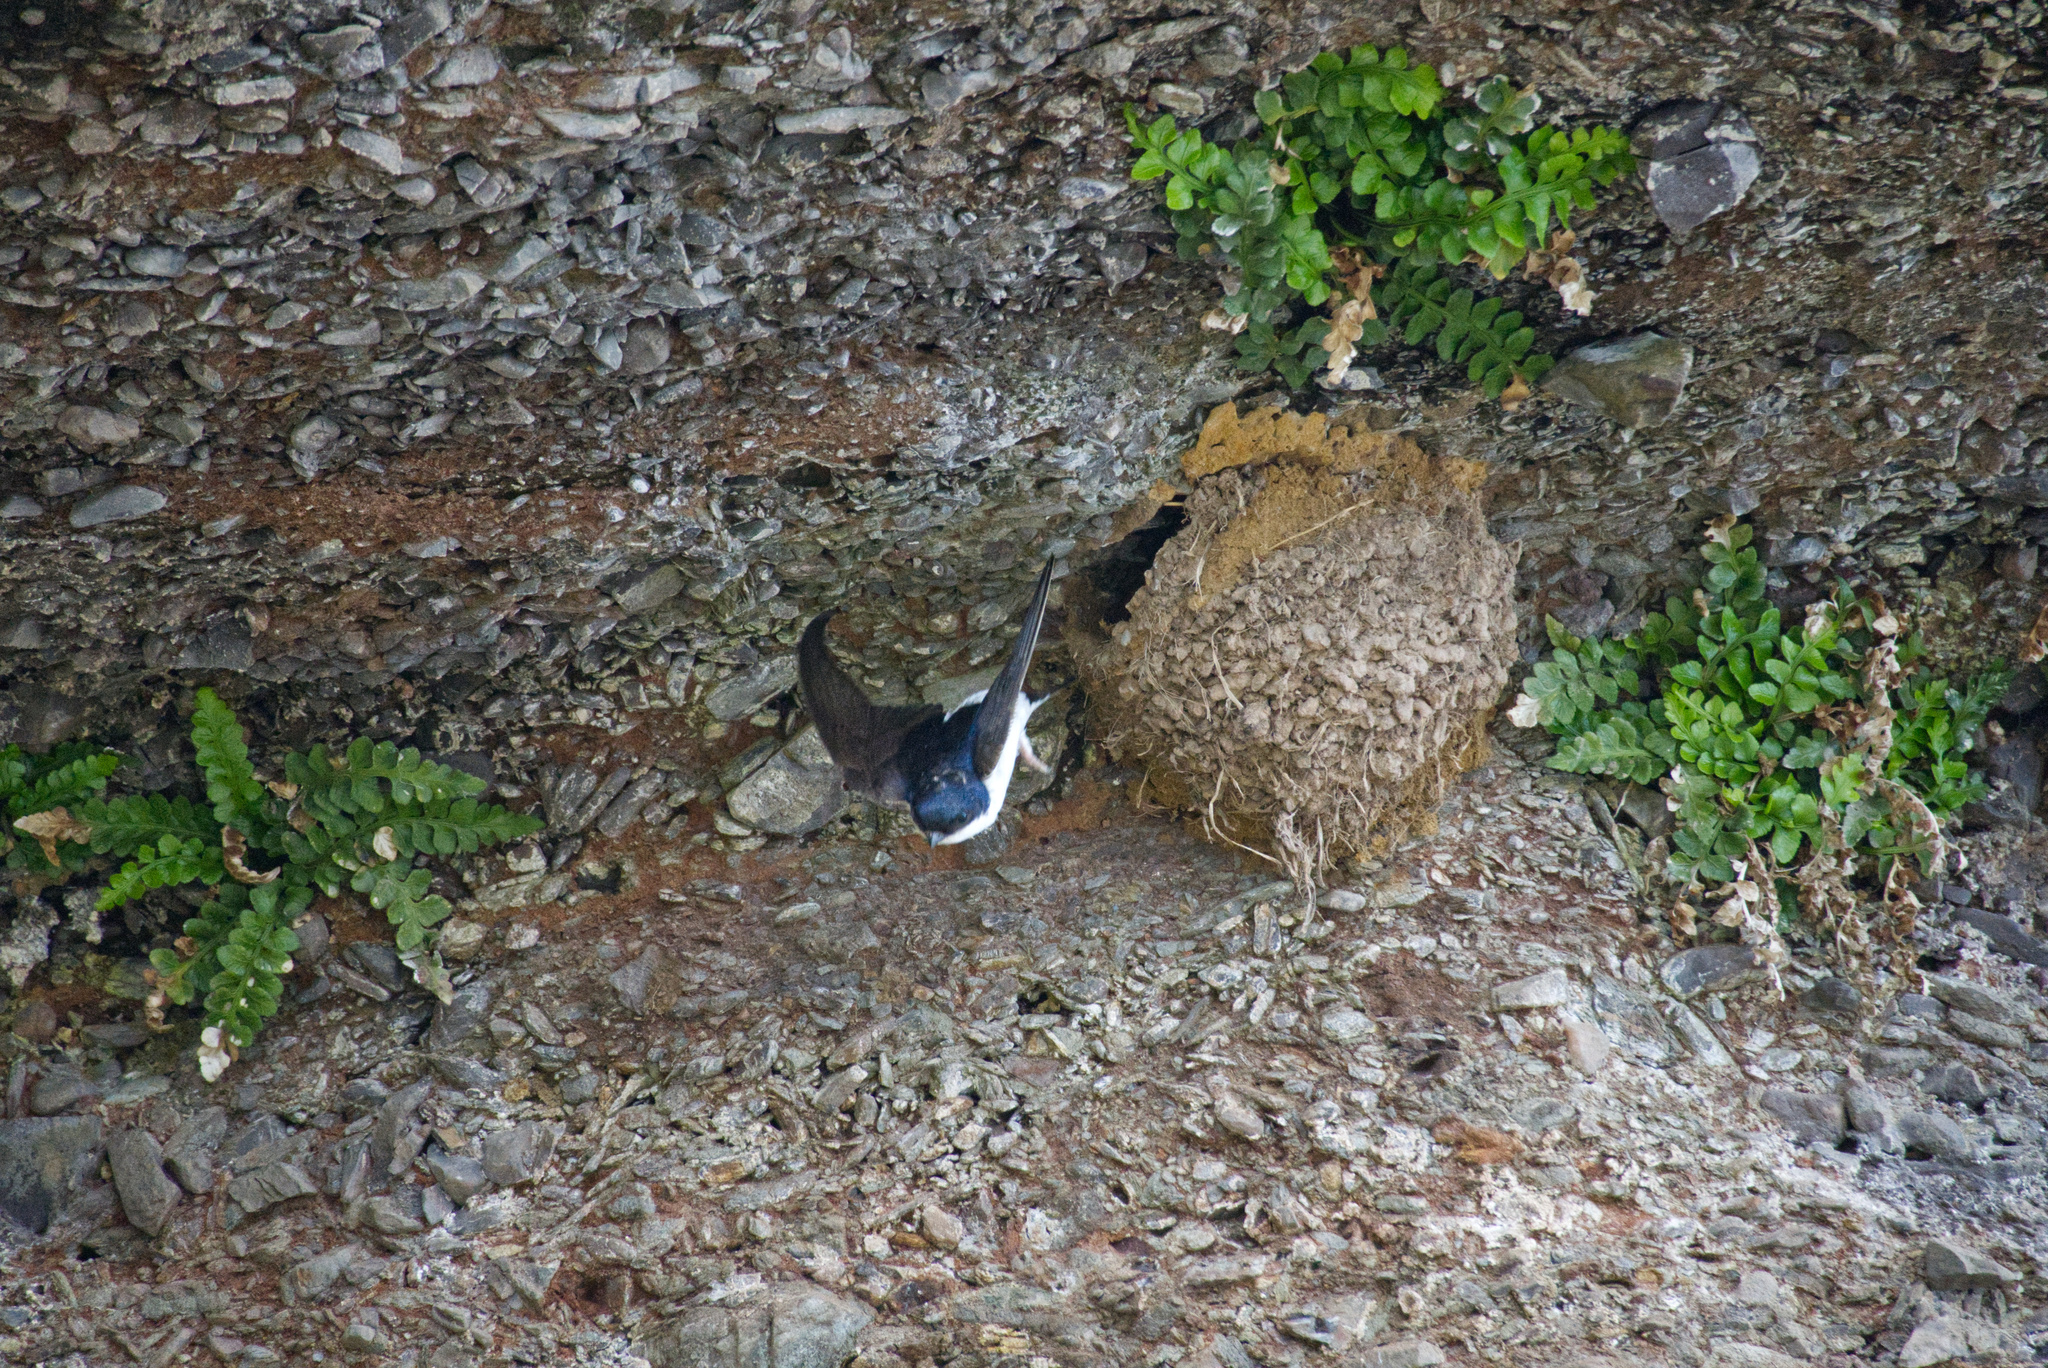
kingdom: Animalia
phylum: Chordata
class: Aves
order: Passeriformes
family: Hirundinidae
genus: Delichon
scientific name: Delichon urbicum
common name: Common house martin
